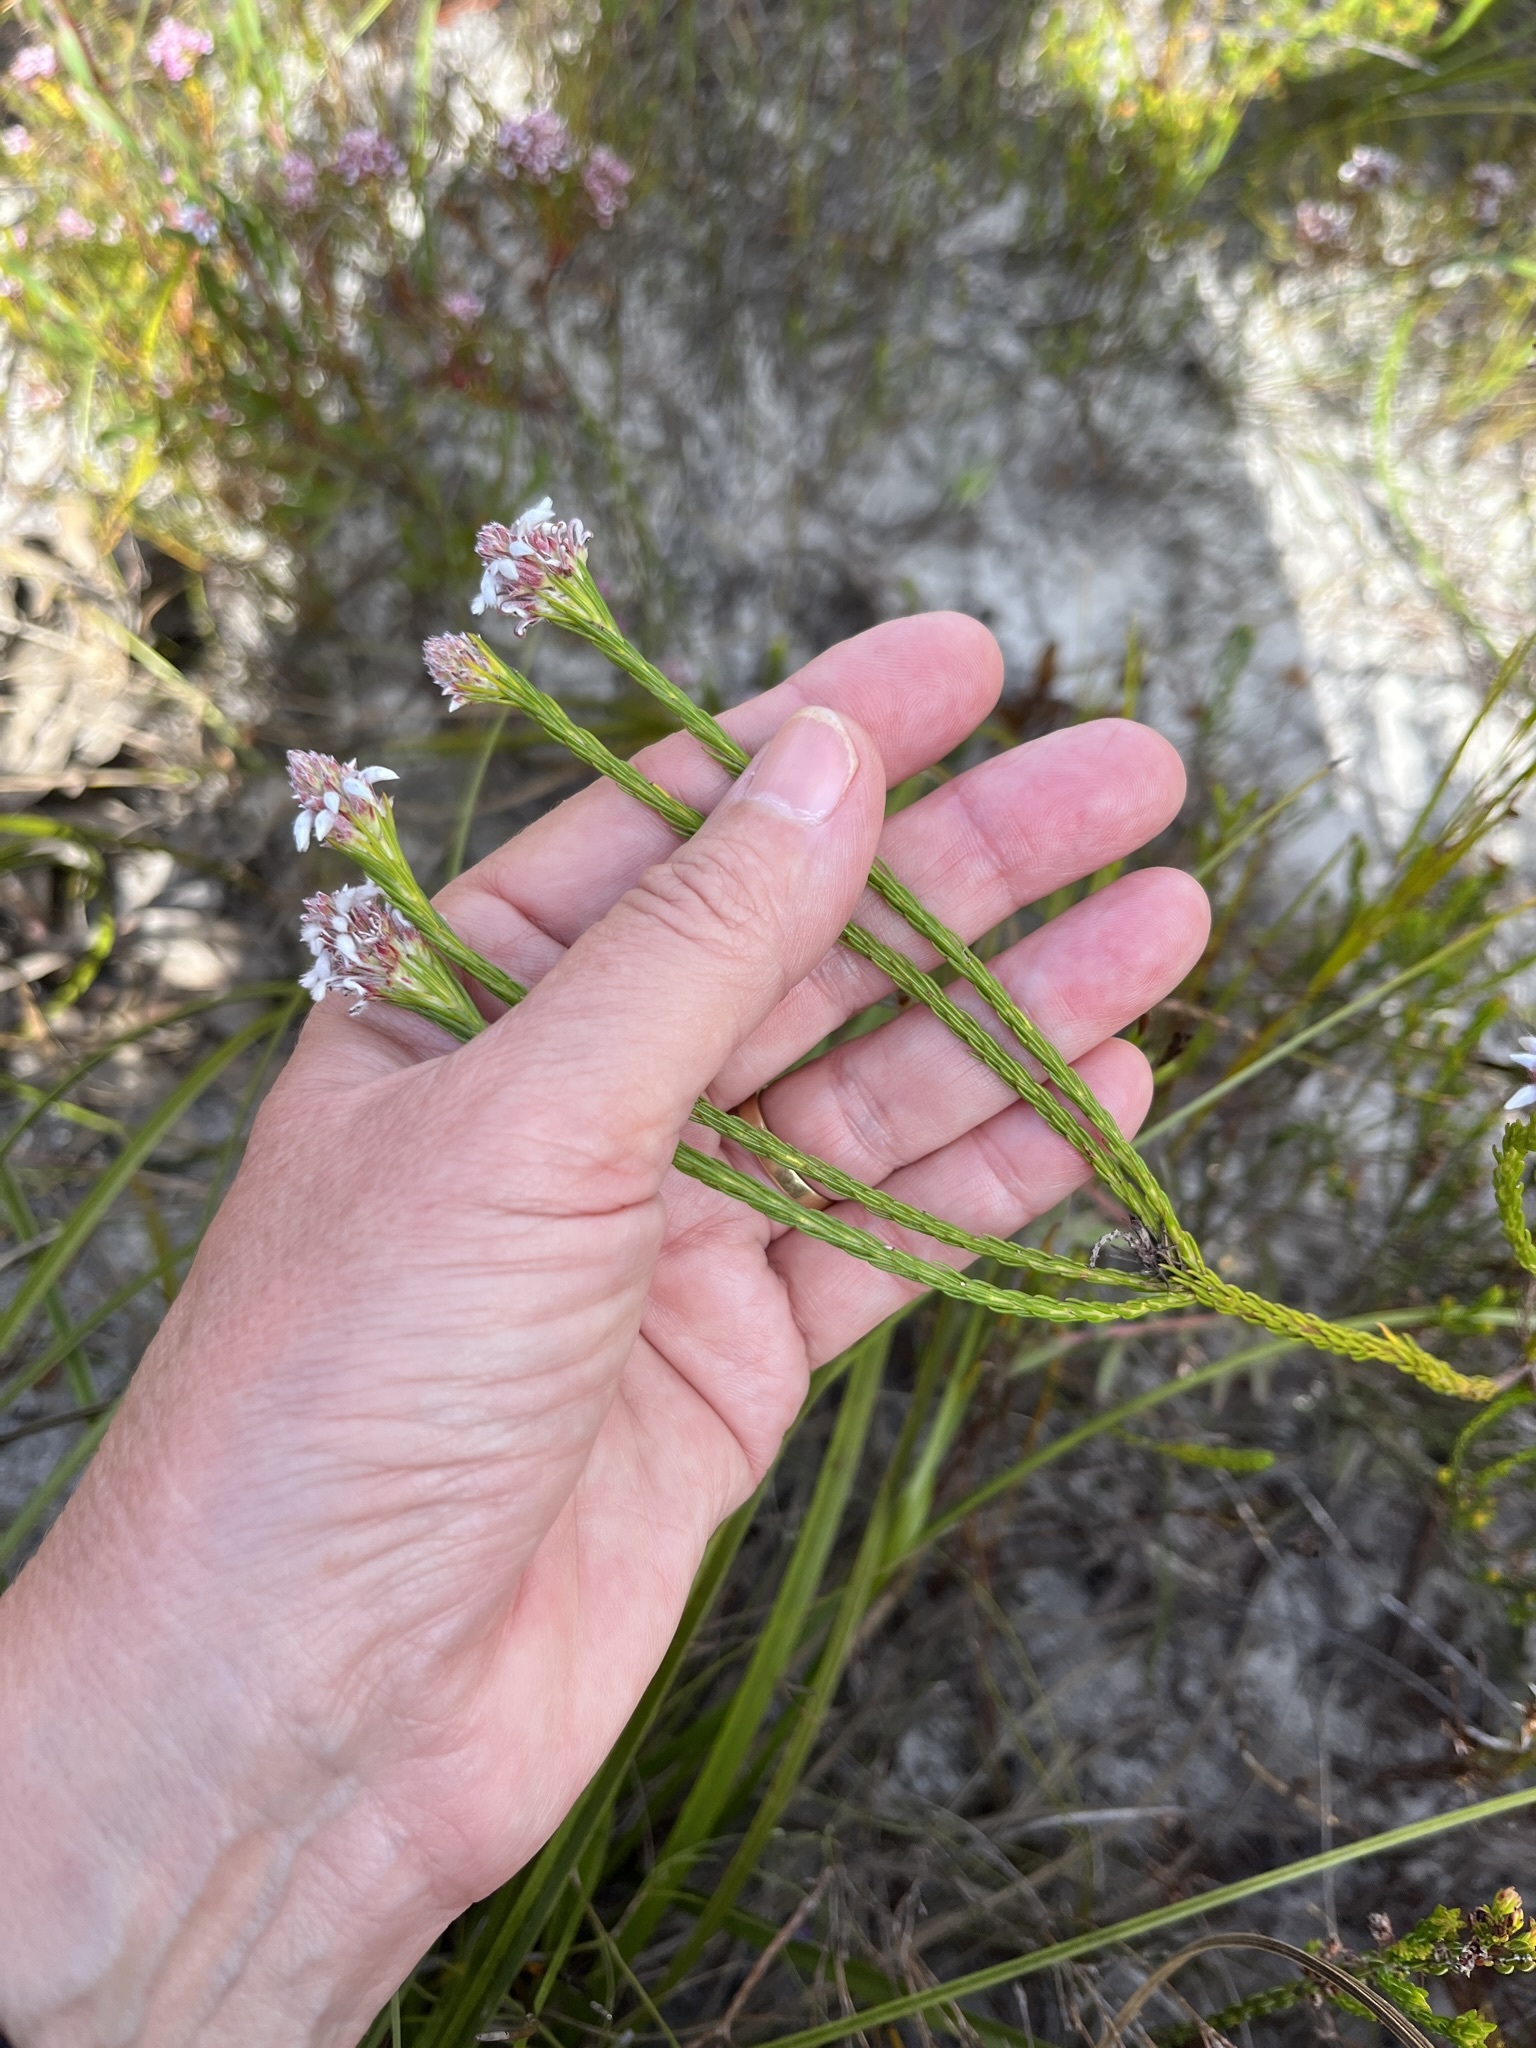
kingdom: Plantae
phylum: Tracheophyta
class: Magnoliopsida
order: Proteales
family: Proteaceae
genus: Spatalla
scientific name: Spatalla squamata
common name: Silky spoon
